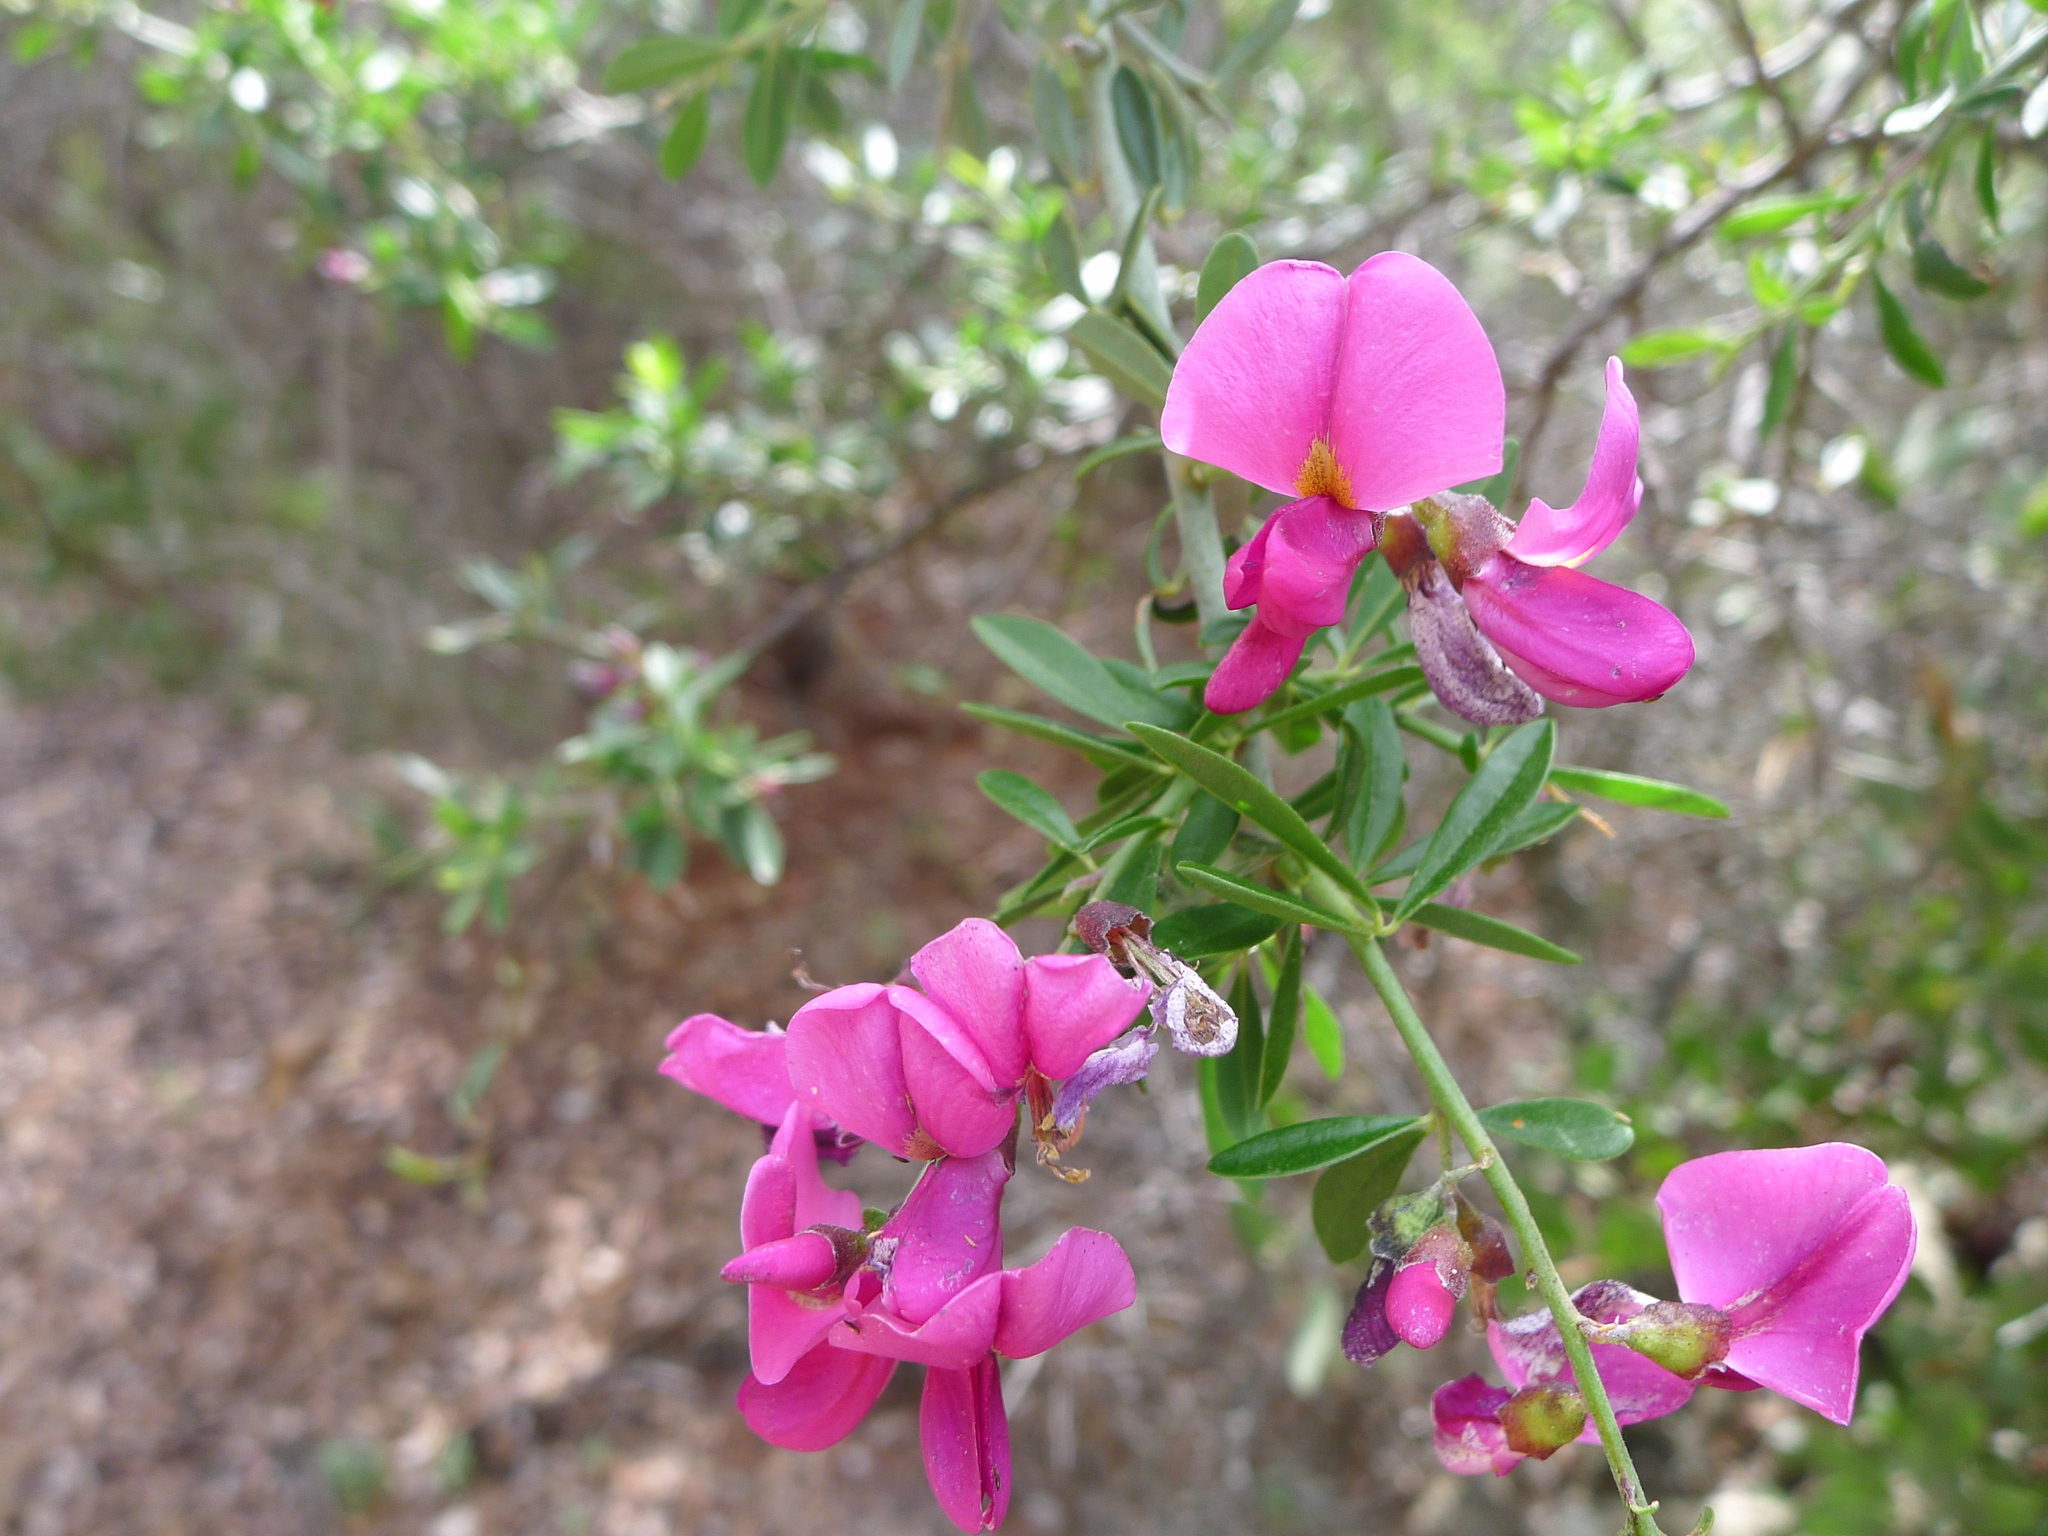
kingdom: Plantae
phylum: Tracheophyta
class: Magnoliopsida
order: Fabales
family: Fabaceae
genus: Pickeringia
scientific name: Pickeringia montana
